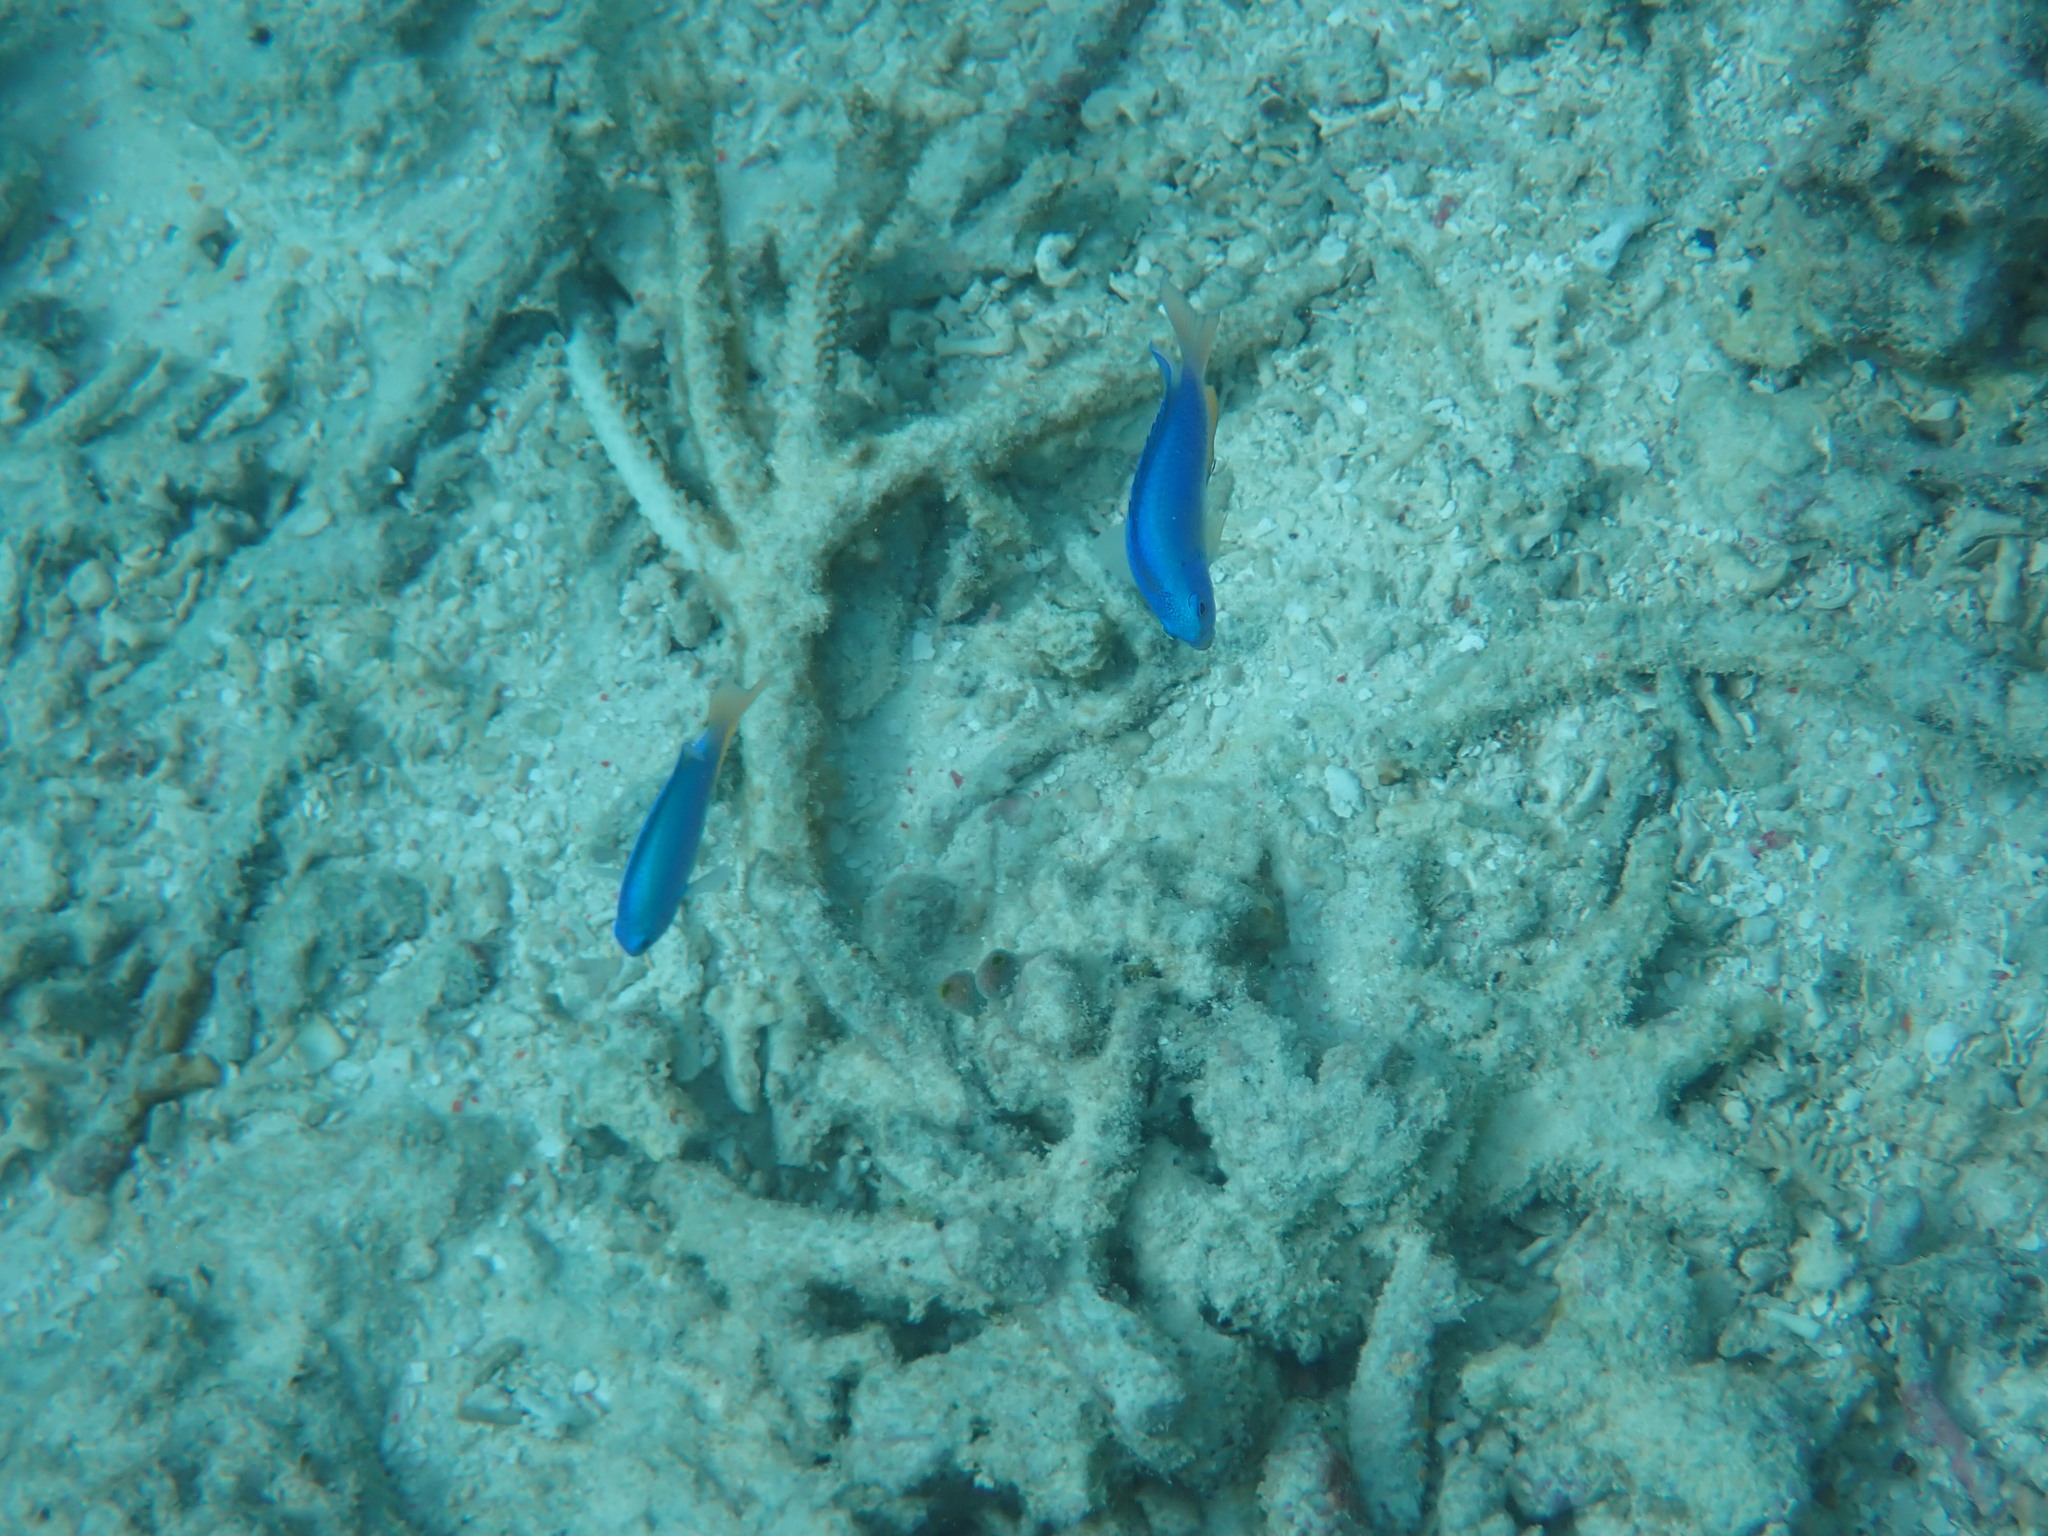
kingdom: Animalia
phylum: Chordata
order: Perciformes
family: Pomacentridae
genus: Pomacentrus
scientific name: Pomacentrus coelestis
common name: Neon damsel
